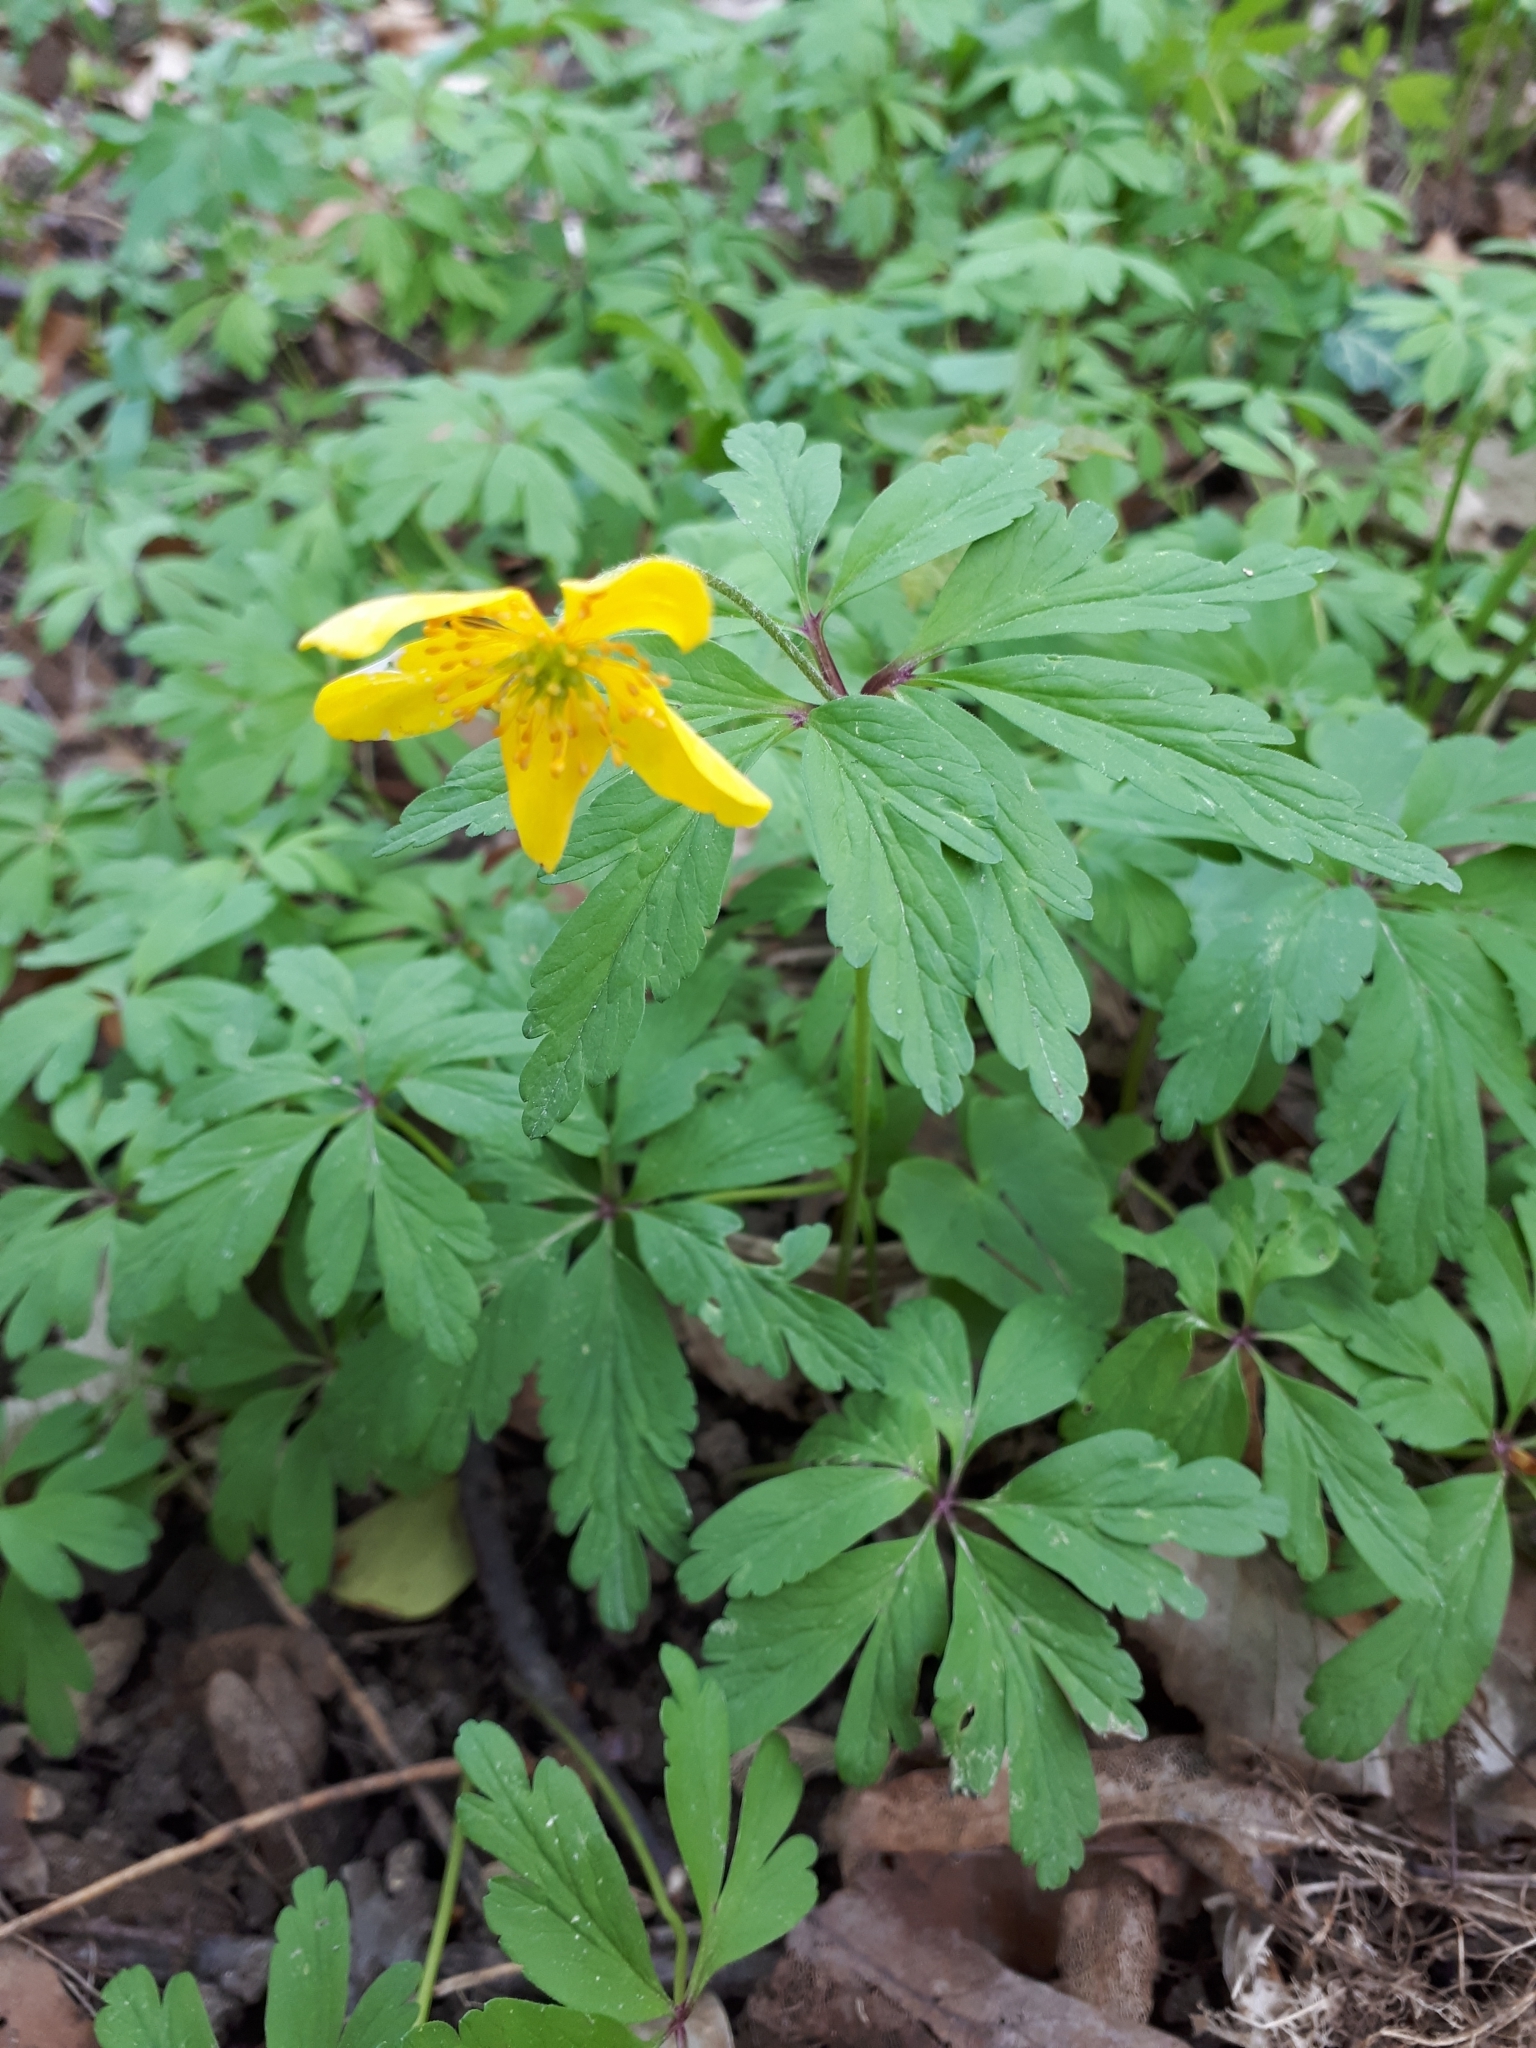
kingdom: Plantae
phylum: Tracheophyta
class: Magnoliopsida
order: Ranunculales
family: Ranunculaceae
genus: Anemone
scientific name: Anemone ranunculoides
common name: Yellow anemone
